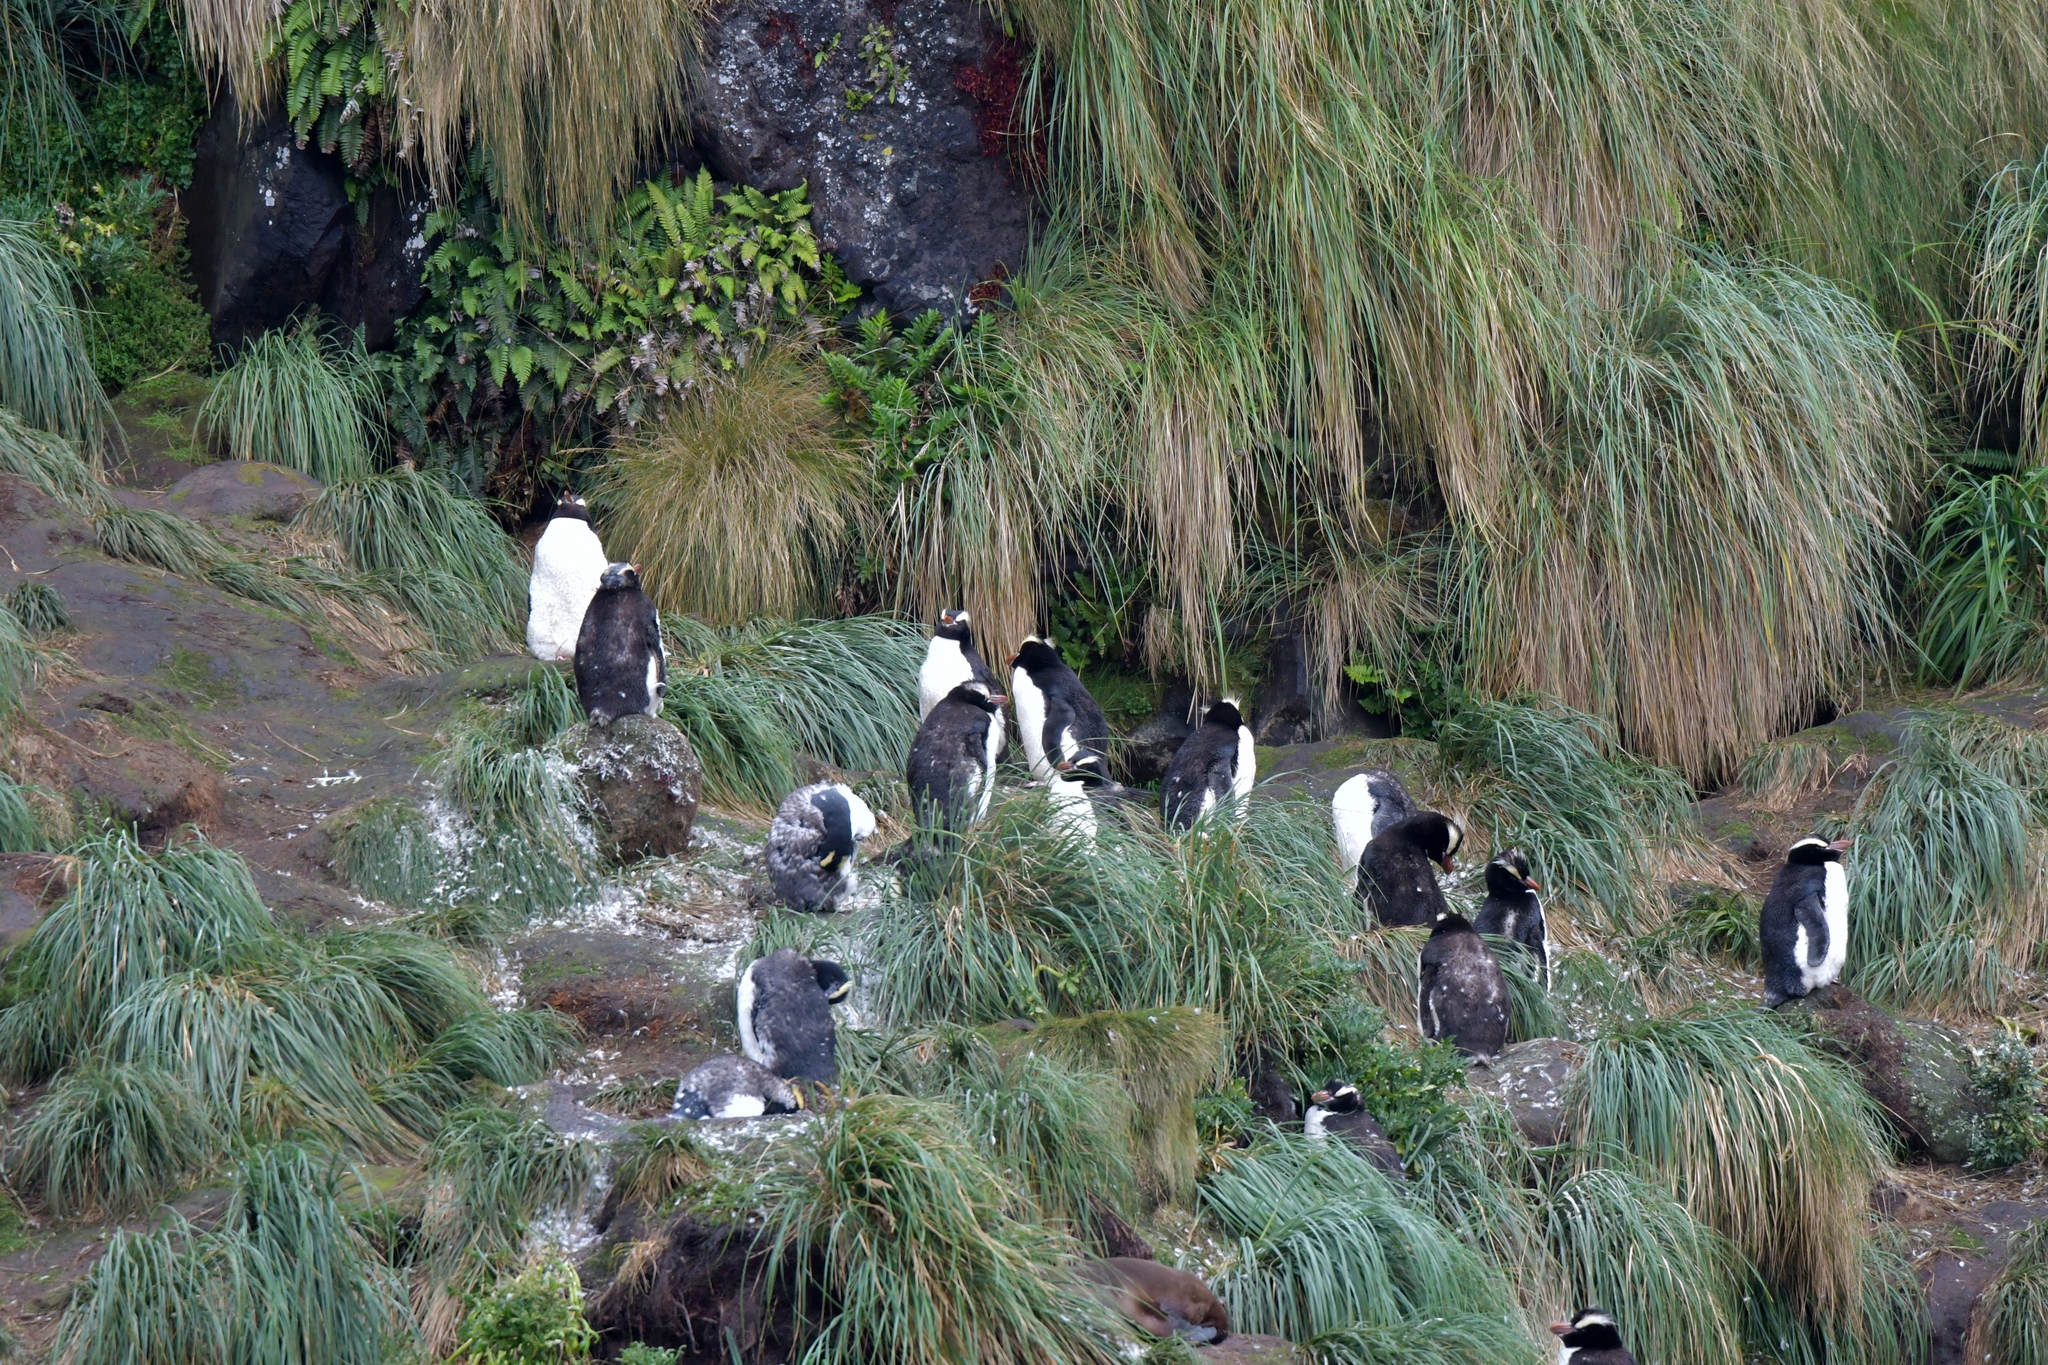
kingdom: Animalia
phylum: Chordata
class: Aves
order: Sphenisciformes
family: Spheniscidae
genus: Eudyptes
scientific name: Eudyptes sclateri
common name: Erect-crested penguin
